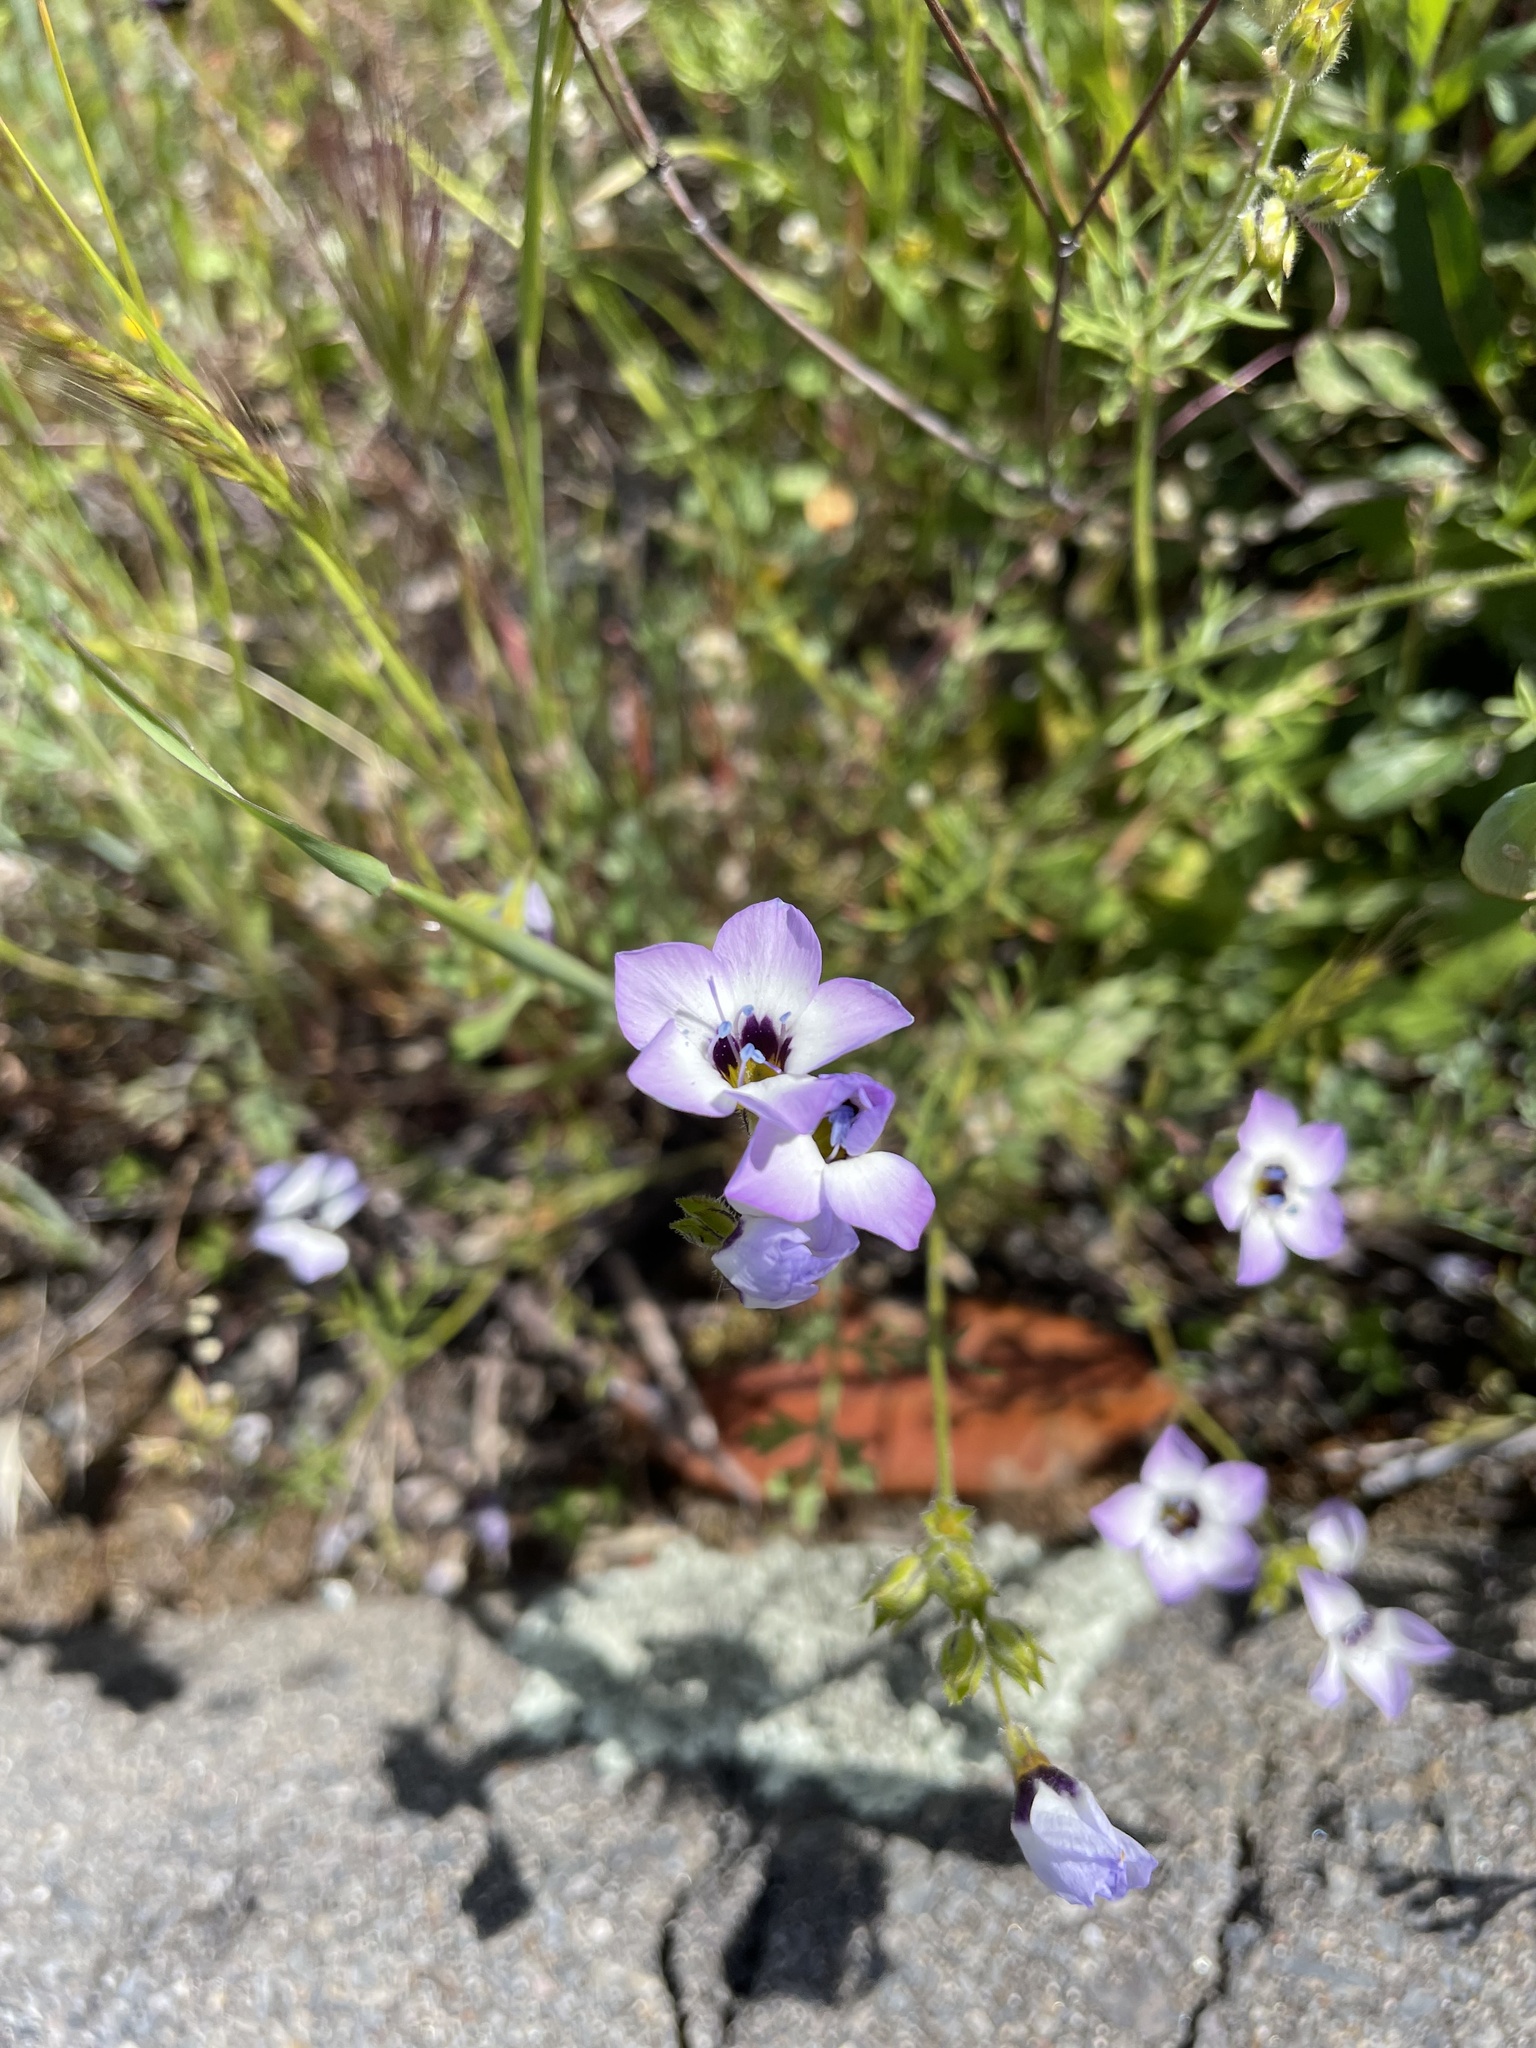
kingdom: Plantae
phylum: Tracheophyta
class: Magnoliopsida
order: Ericales
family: Polemoniaceae
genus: Gilia
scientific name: Gilia tricolor
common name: Bird's-eyes
